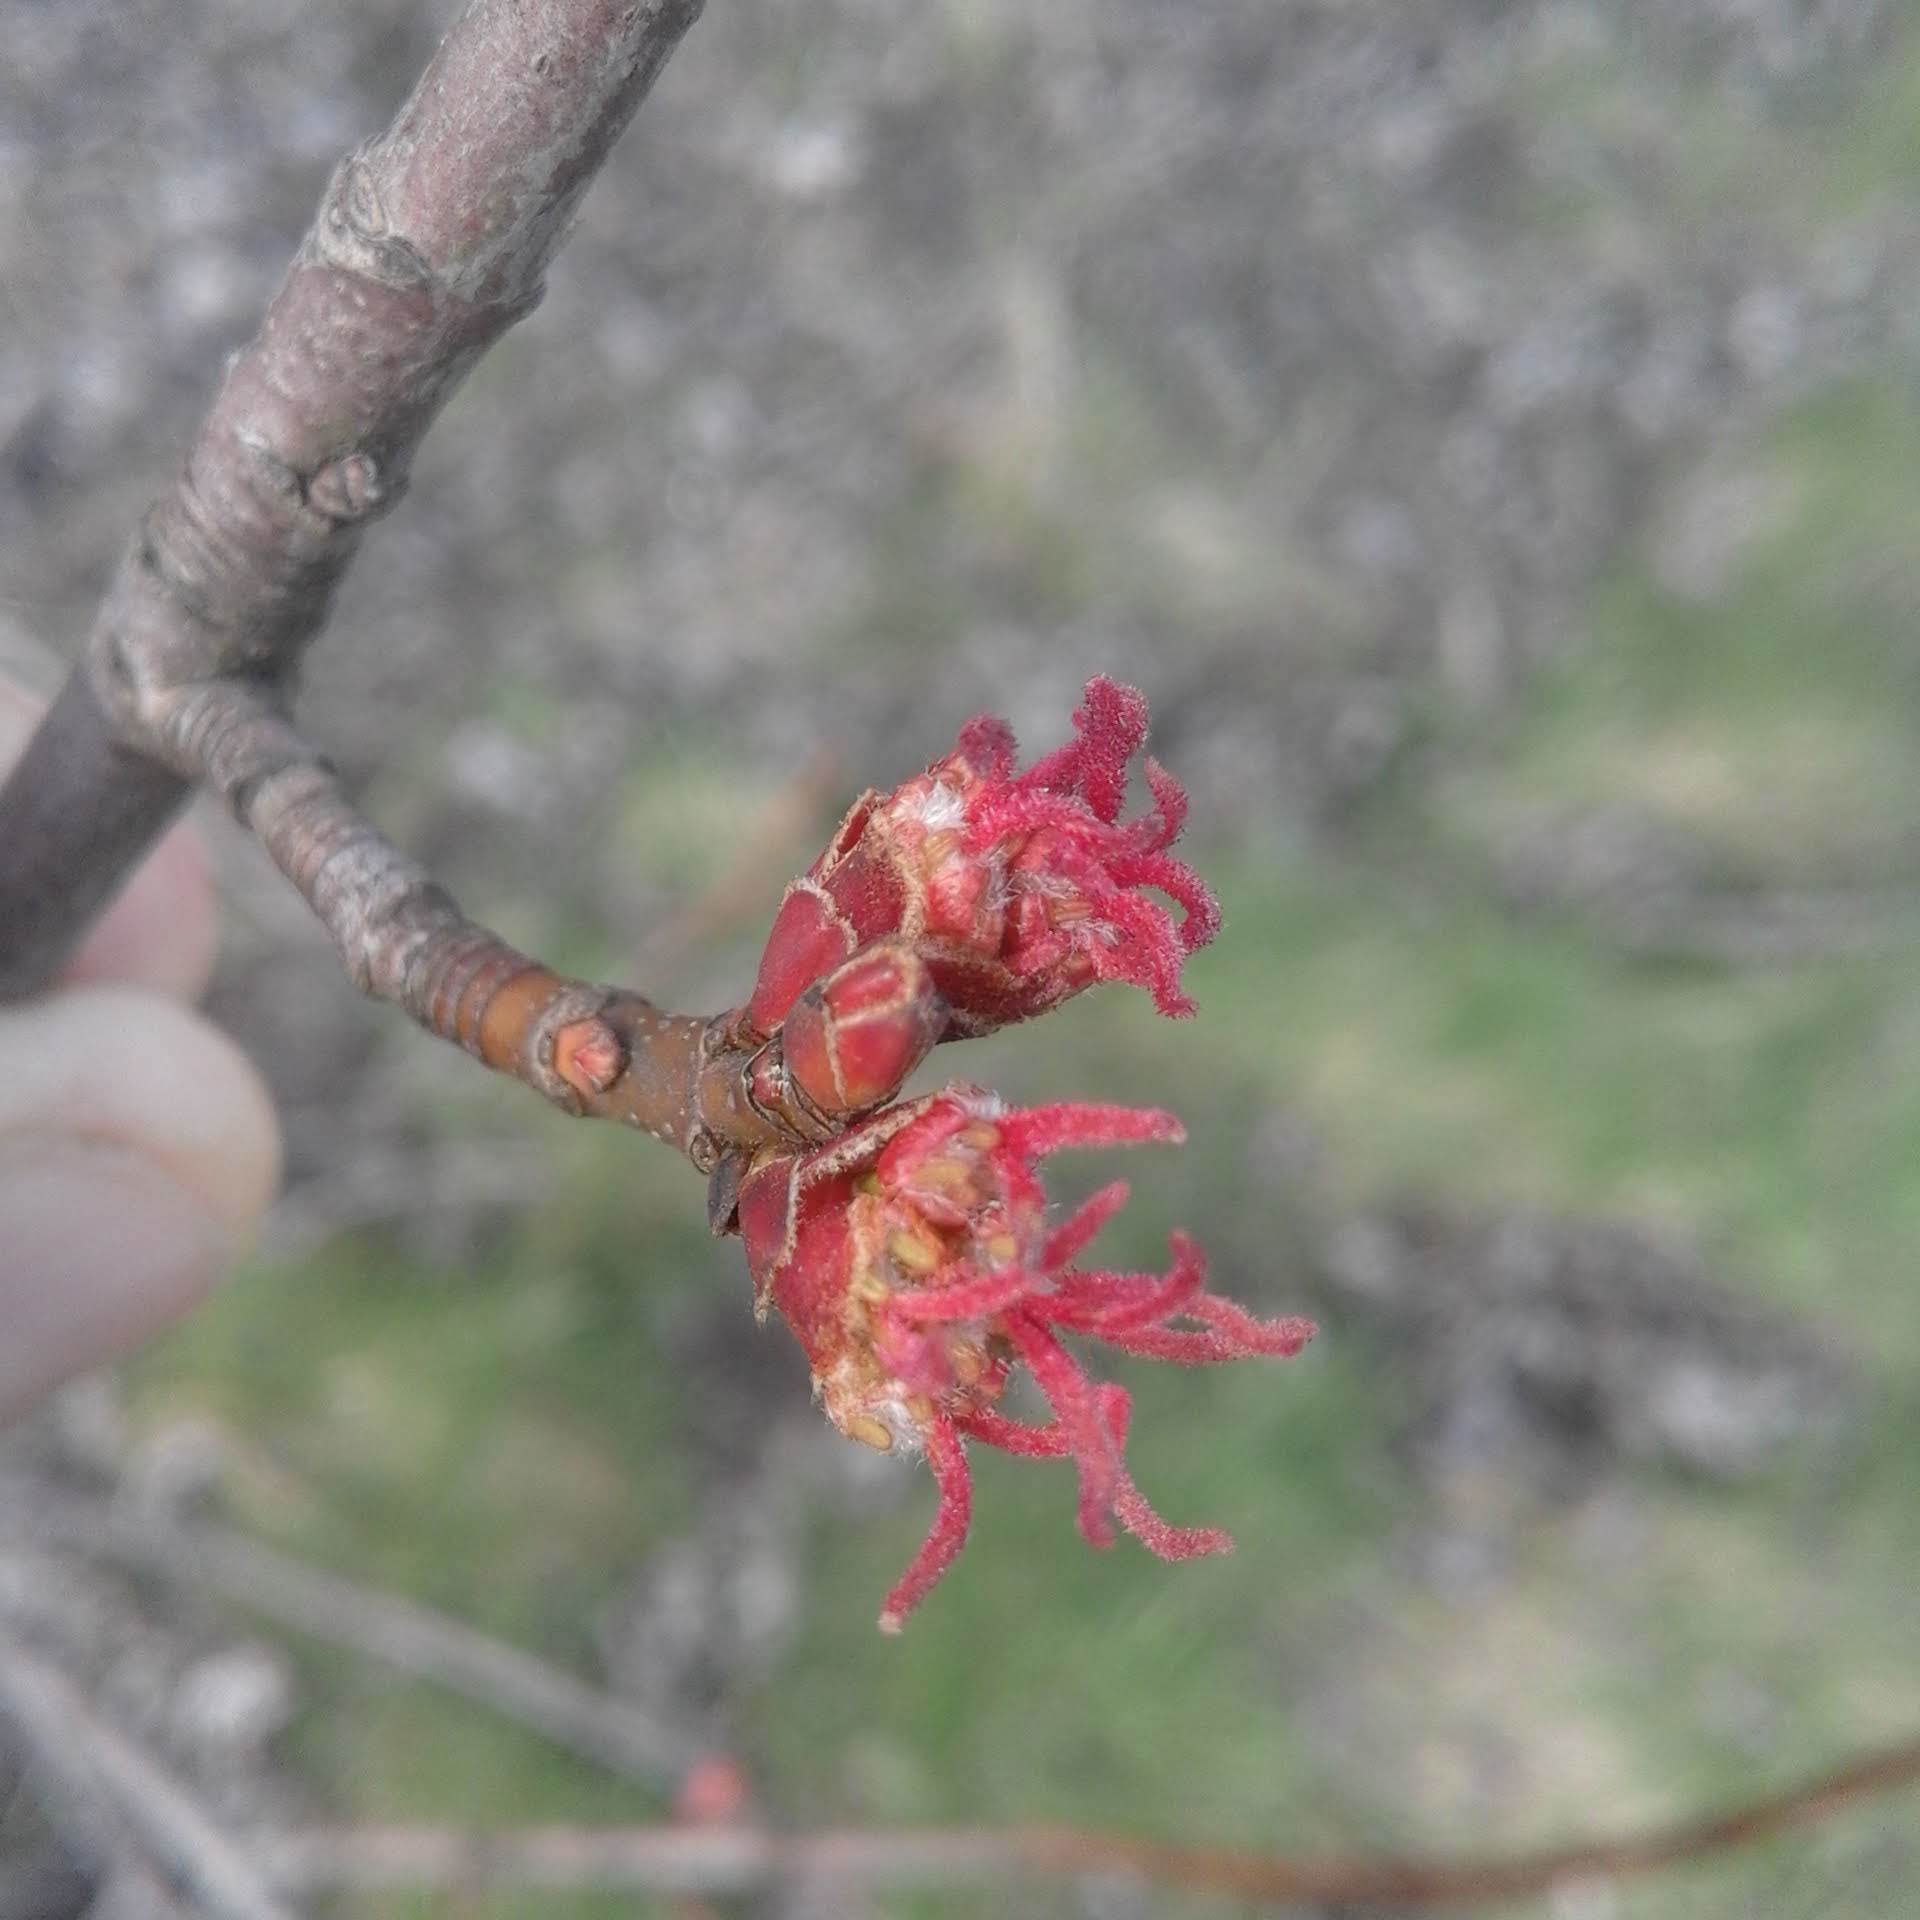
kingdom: Plantae
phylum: Tracheophyta
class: Magnoliopsida
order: Sapindales
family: Sapindaceae
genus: Acer
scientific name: Acer saccharinum
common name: Silver maple
